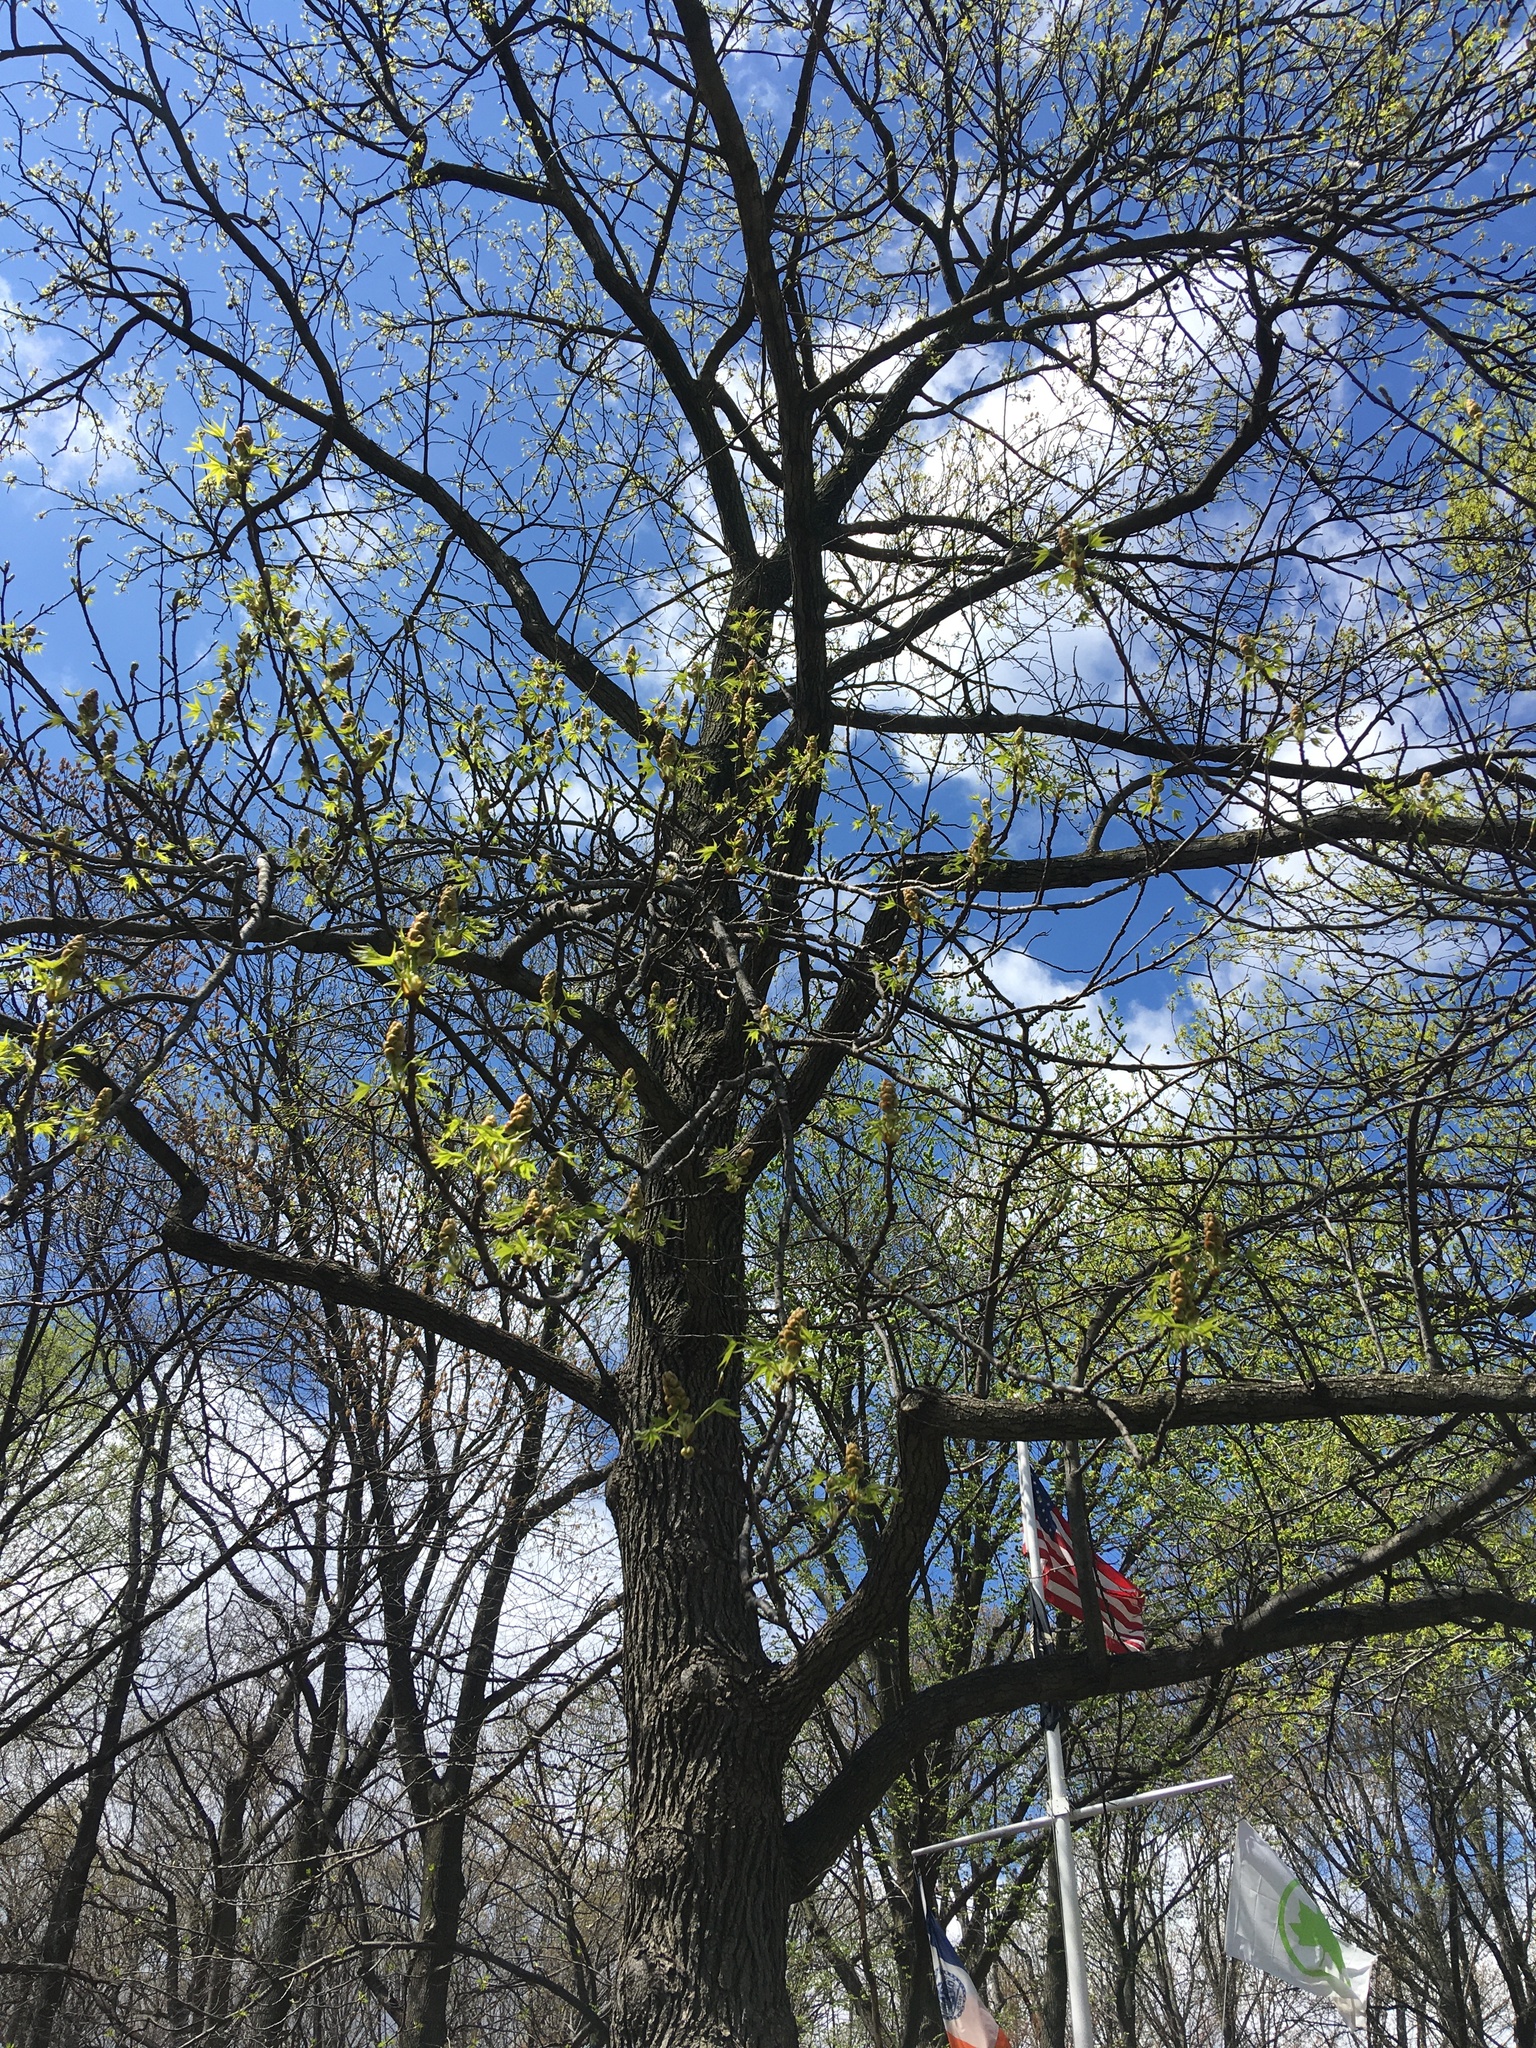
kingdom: Plantae
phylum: Tracheophyta
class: Magnoliopsida
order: Saxifragales
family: Altingiaceae
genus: Liquidambar
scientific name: Liquidambar styraciflua
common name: Sweet gum
